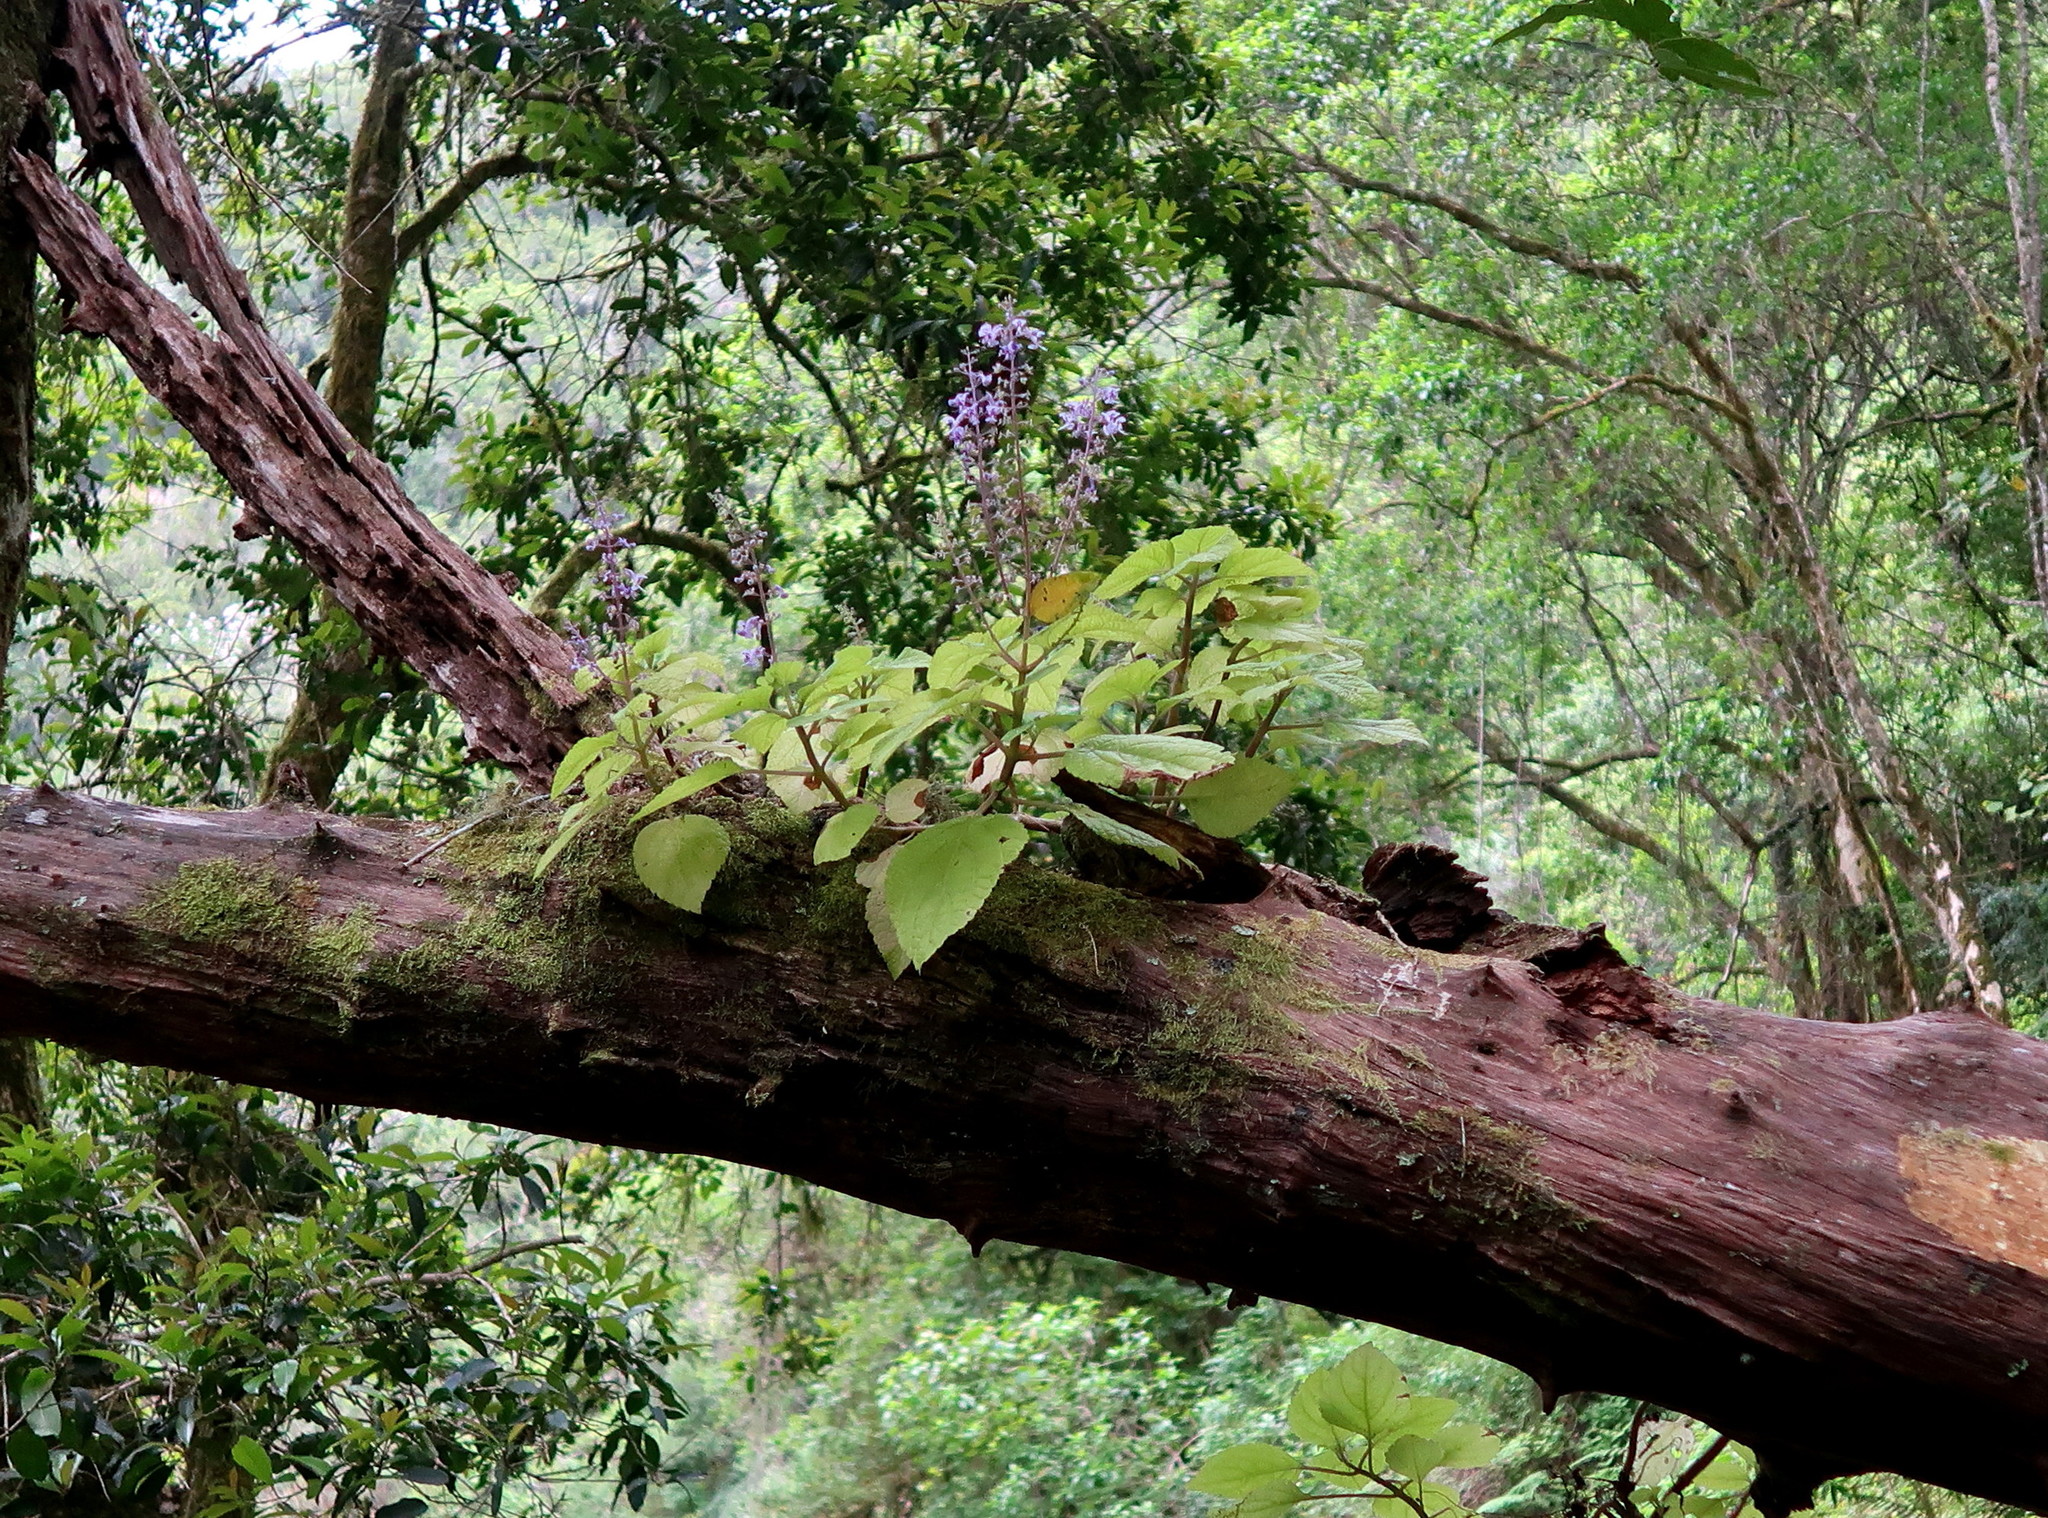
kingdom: Plantae
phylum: Tracheophyta
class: Magnoliopsida
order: Lamiales
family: Lamiaceae
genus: Plectranthus
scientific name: Plectranthus fruticosus
